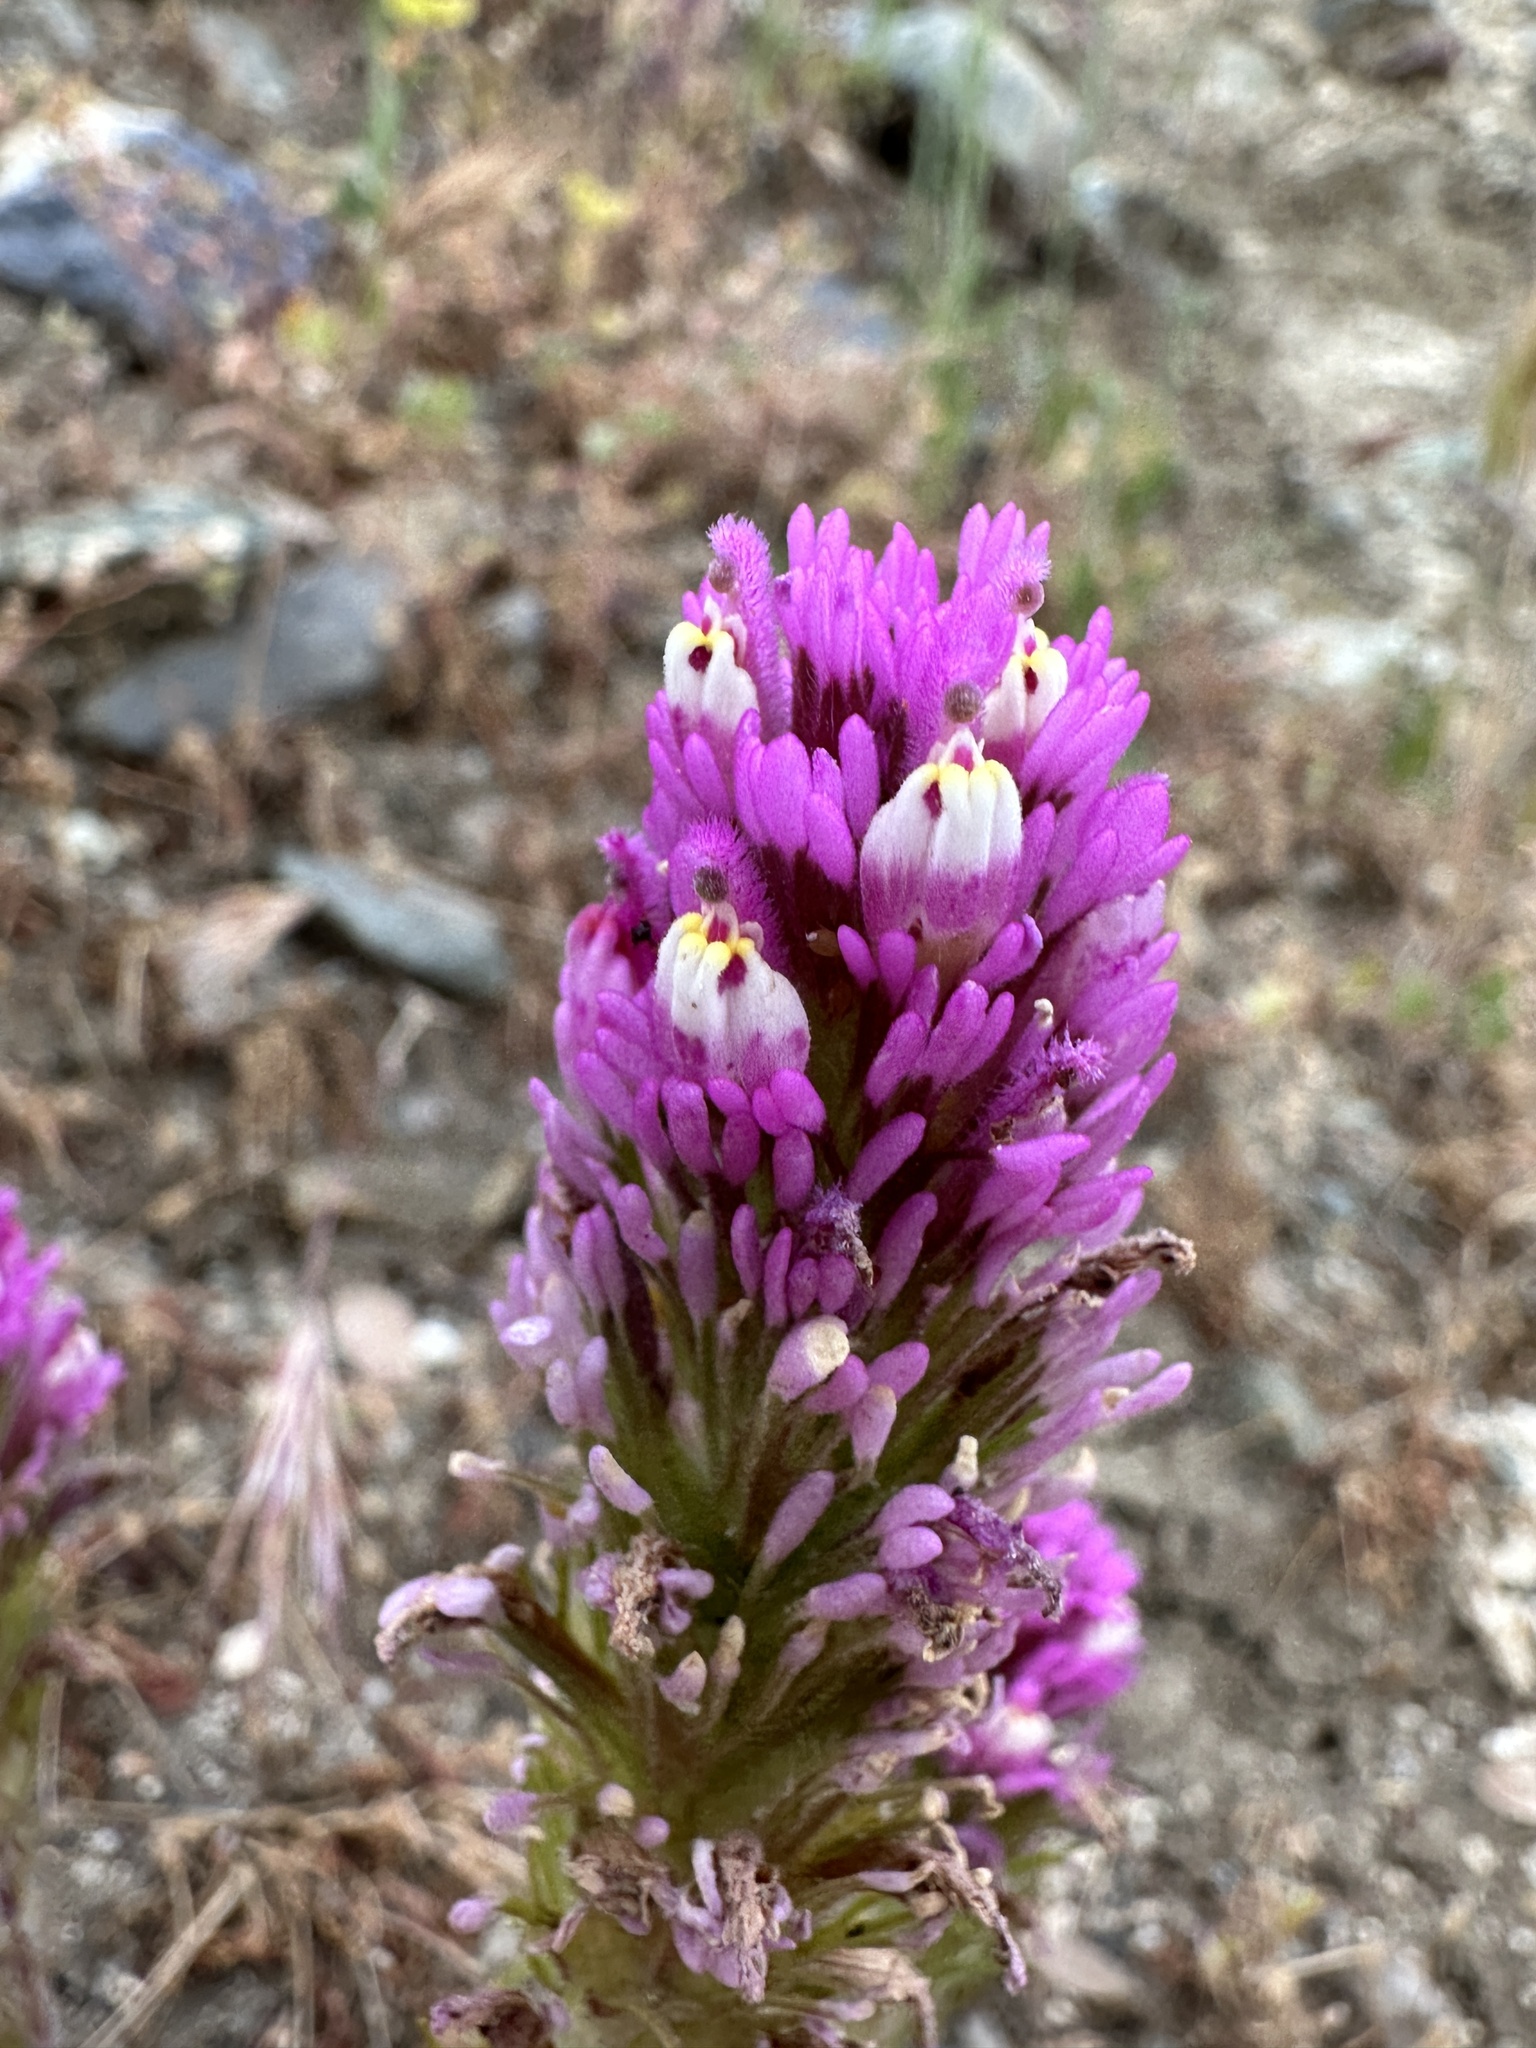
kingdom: Plantae
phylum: Tracheophyta
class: Magnoliopsida
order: Lamiales
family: Orobanchaceae
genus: Castilleja
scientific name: Castilleja exserta
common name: Purple owl-clover
